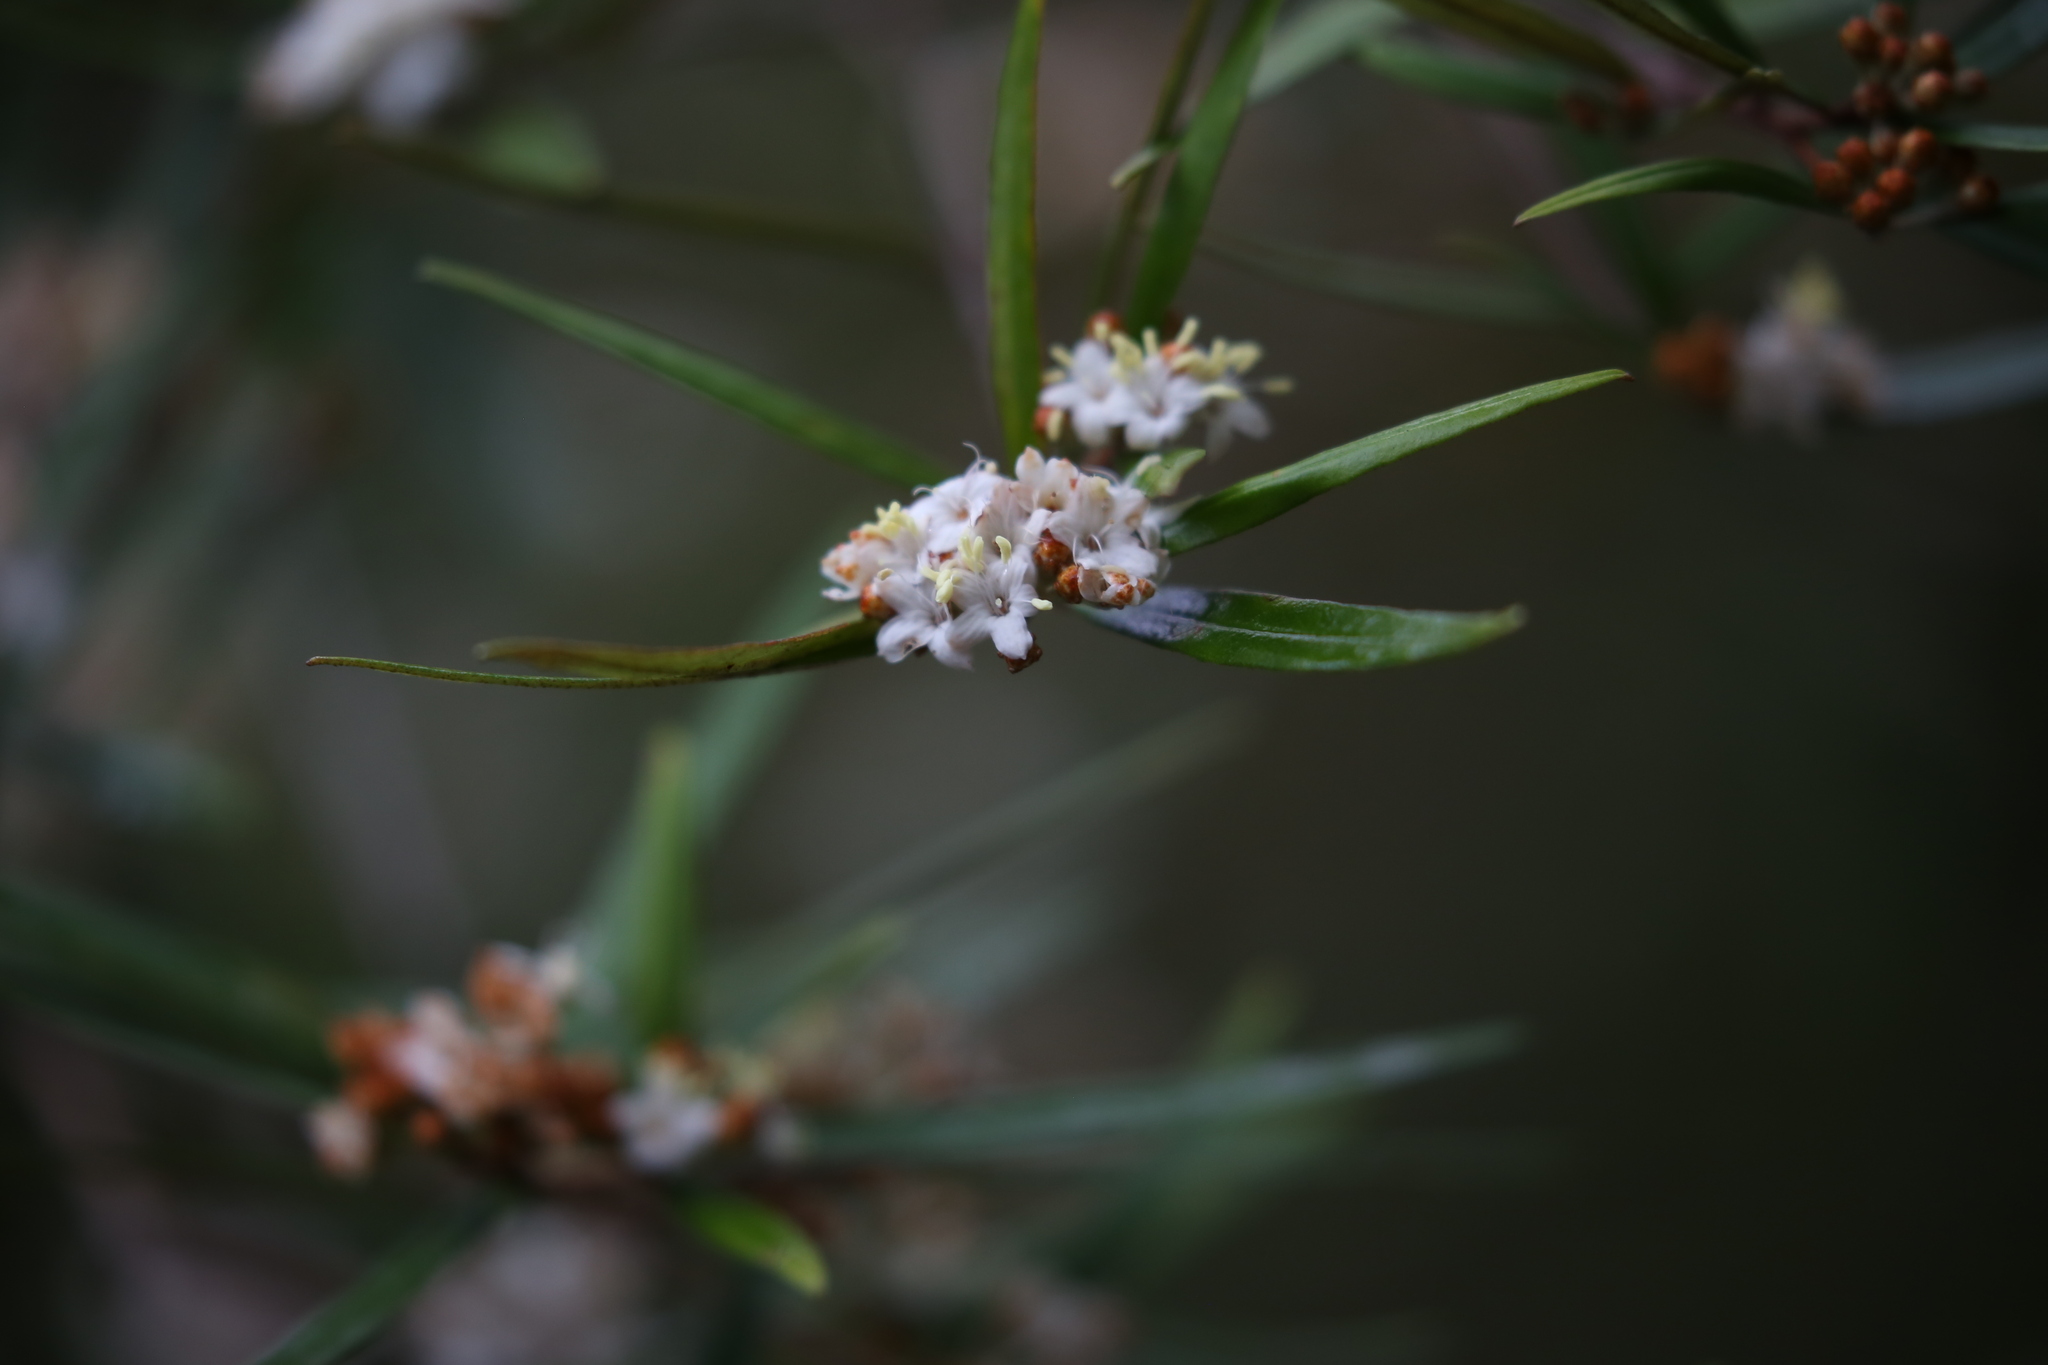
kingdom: Plantae
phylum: Tracheophyta
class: Magnoliopsida
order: Sapindales
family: Rutaceae
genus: Phebalium
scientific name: Phebalium woombye
